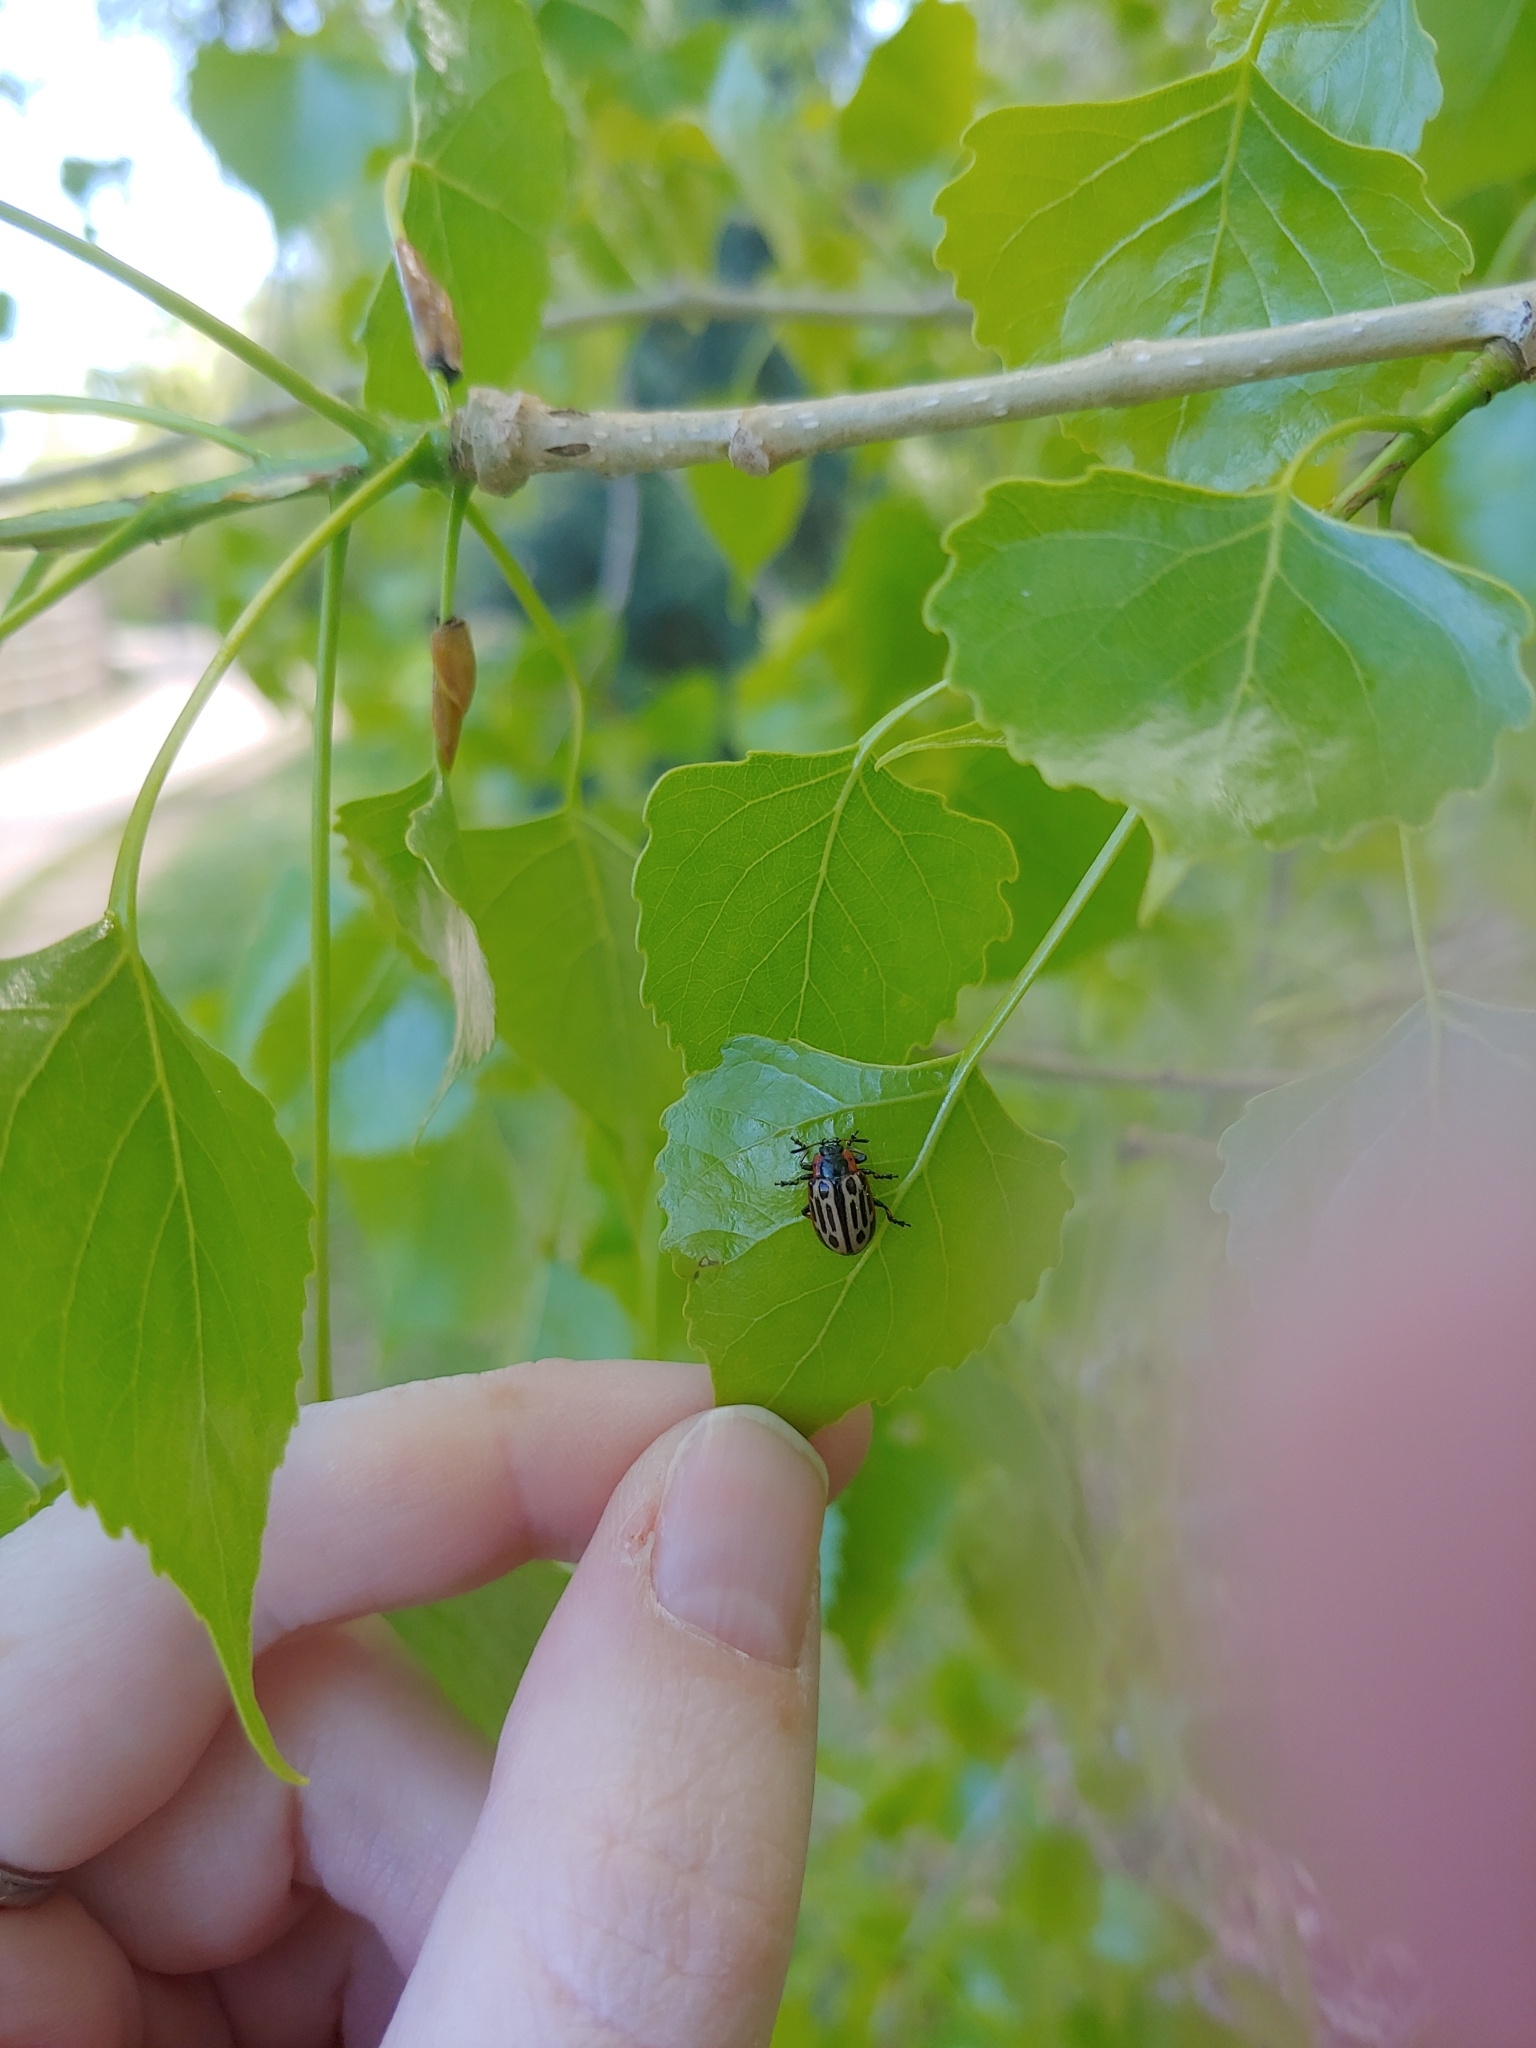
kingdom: Animalia
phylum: Arthropoda
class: Insecta
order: Coleoptera
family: Chrysomelidae
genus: Aethiopocassis
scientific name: Aethiopocassis scripta
